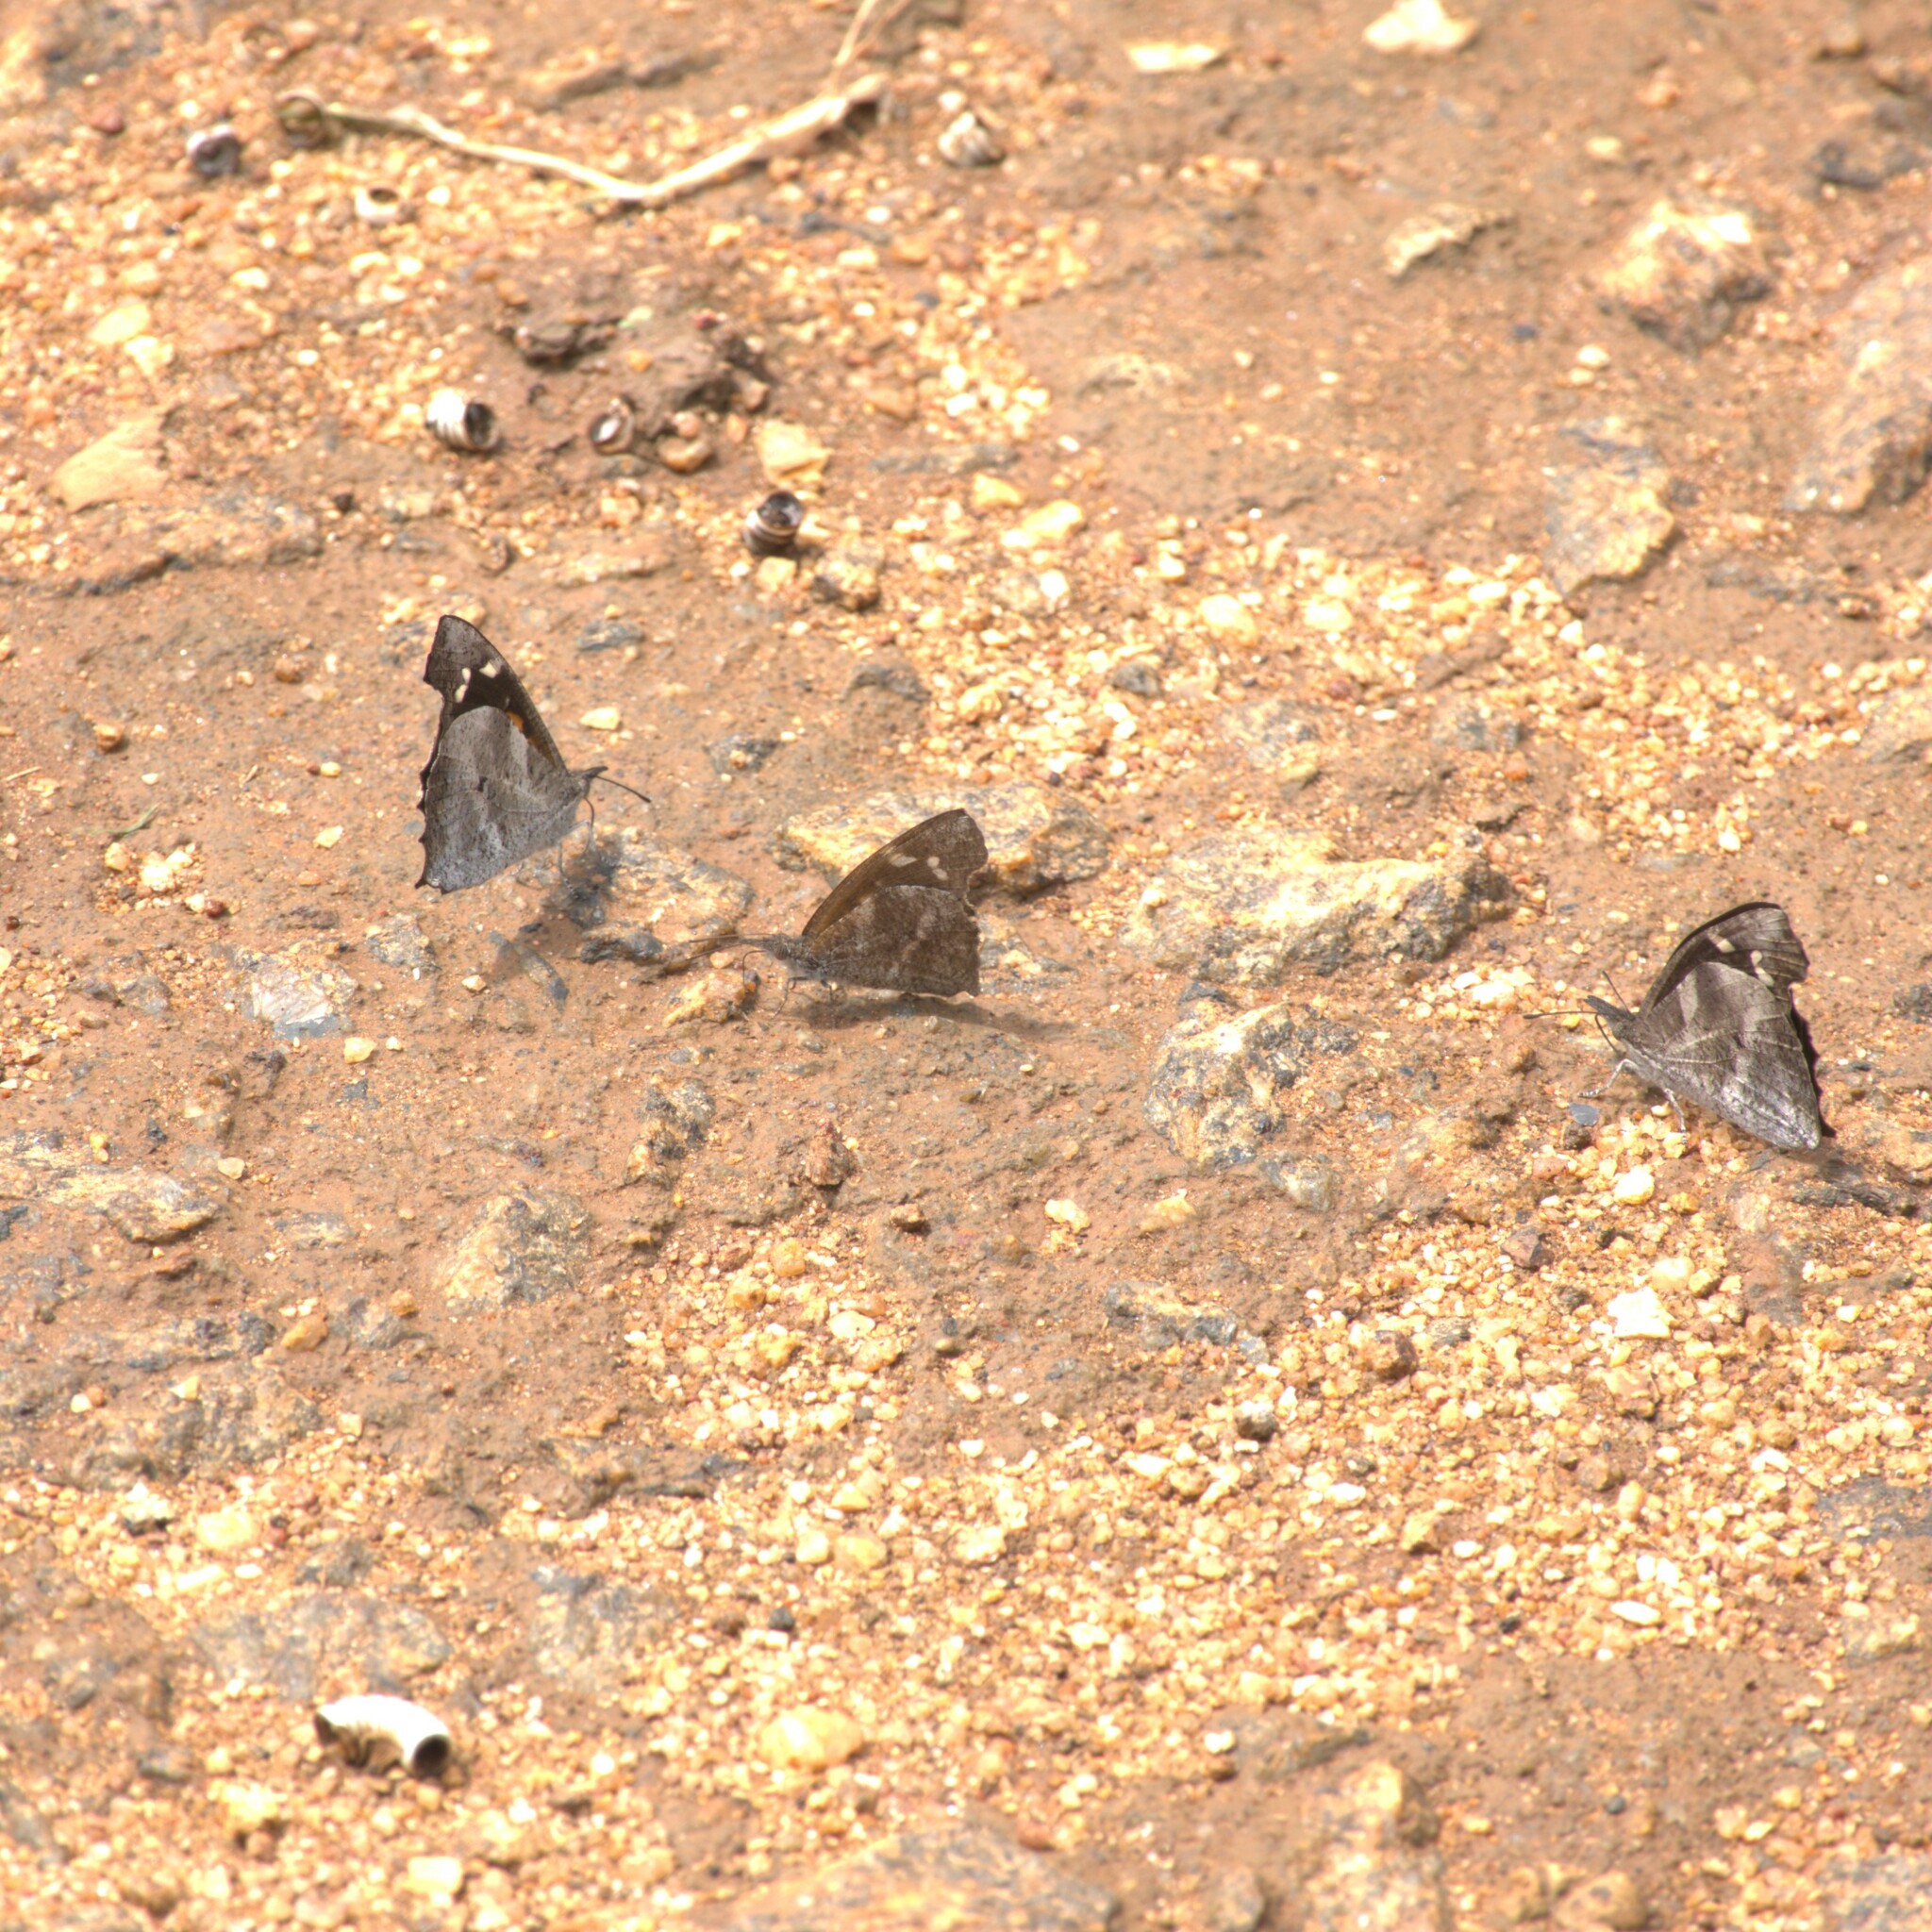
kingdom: Animalia
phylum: Arthropoda
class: Insecta
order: Lepidoptera
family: Nymphalidae
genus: Libythea
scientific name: Libythea laius
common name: African snout
